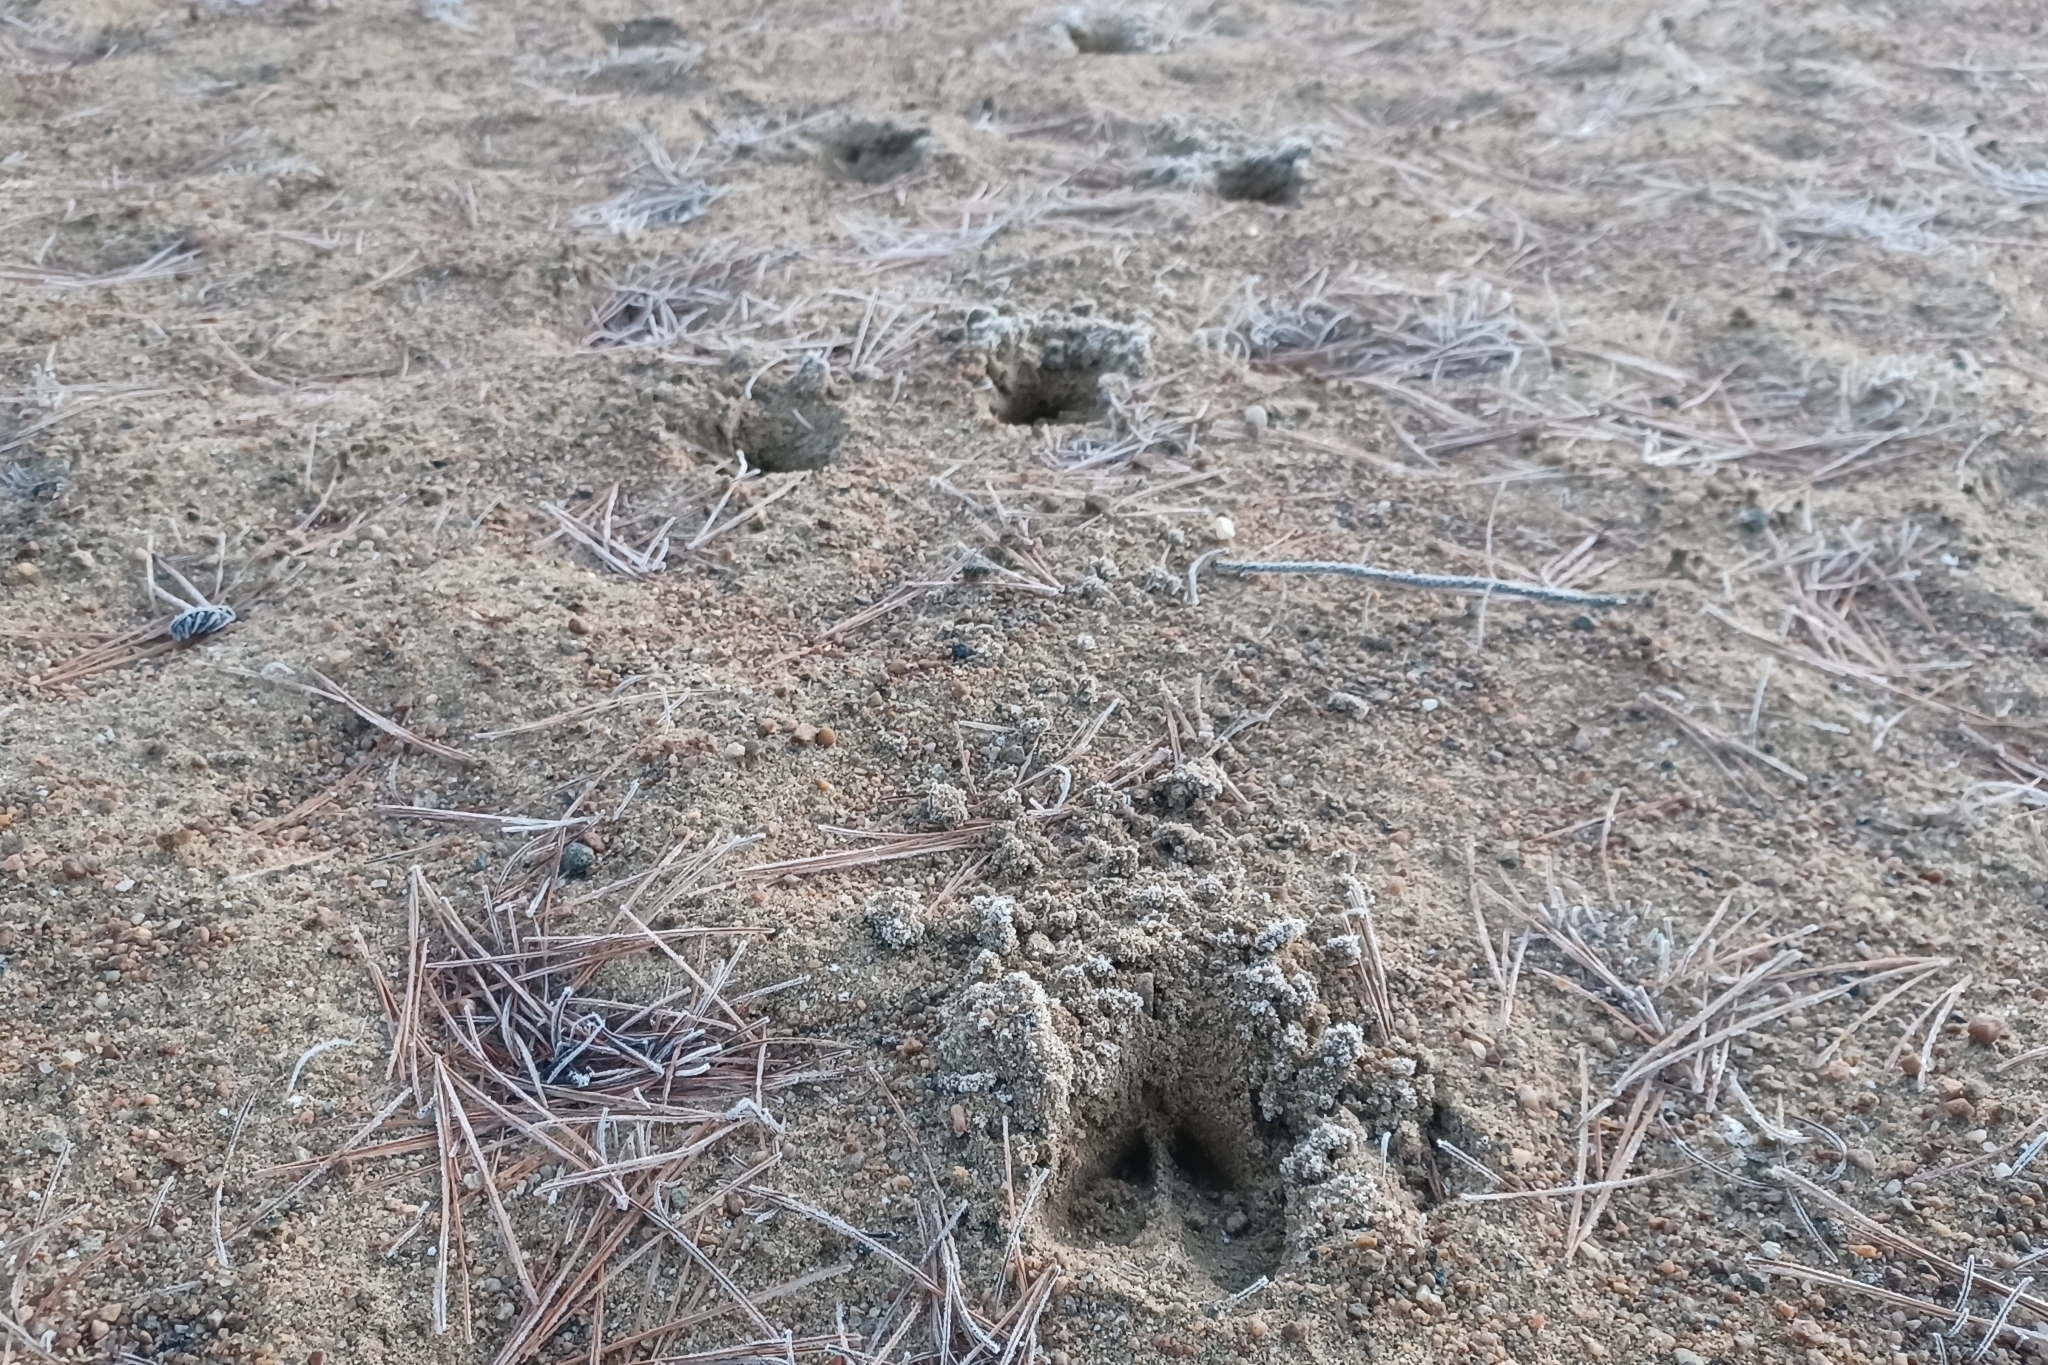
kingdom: Animalia
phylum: Chordata
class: Mammalia
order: Artiodactyla
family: Cervidae
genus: Odocoileus
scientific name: Odocoileus virginianus
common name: White-tailed deer
